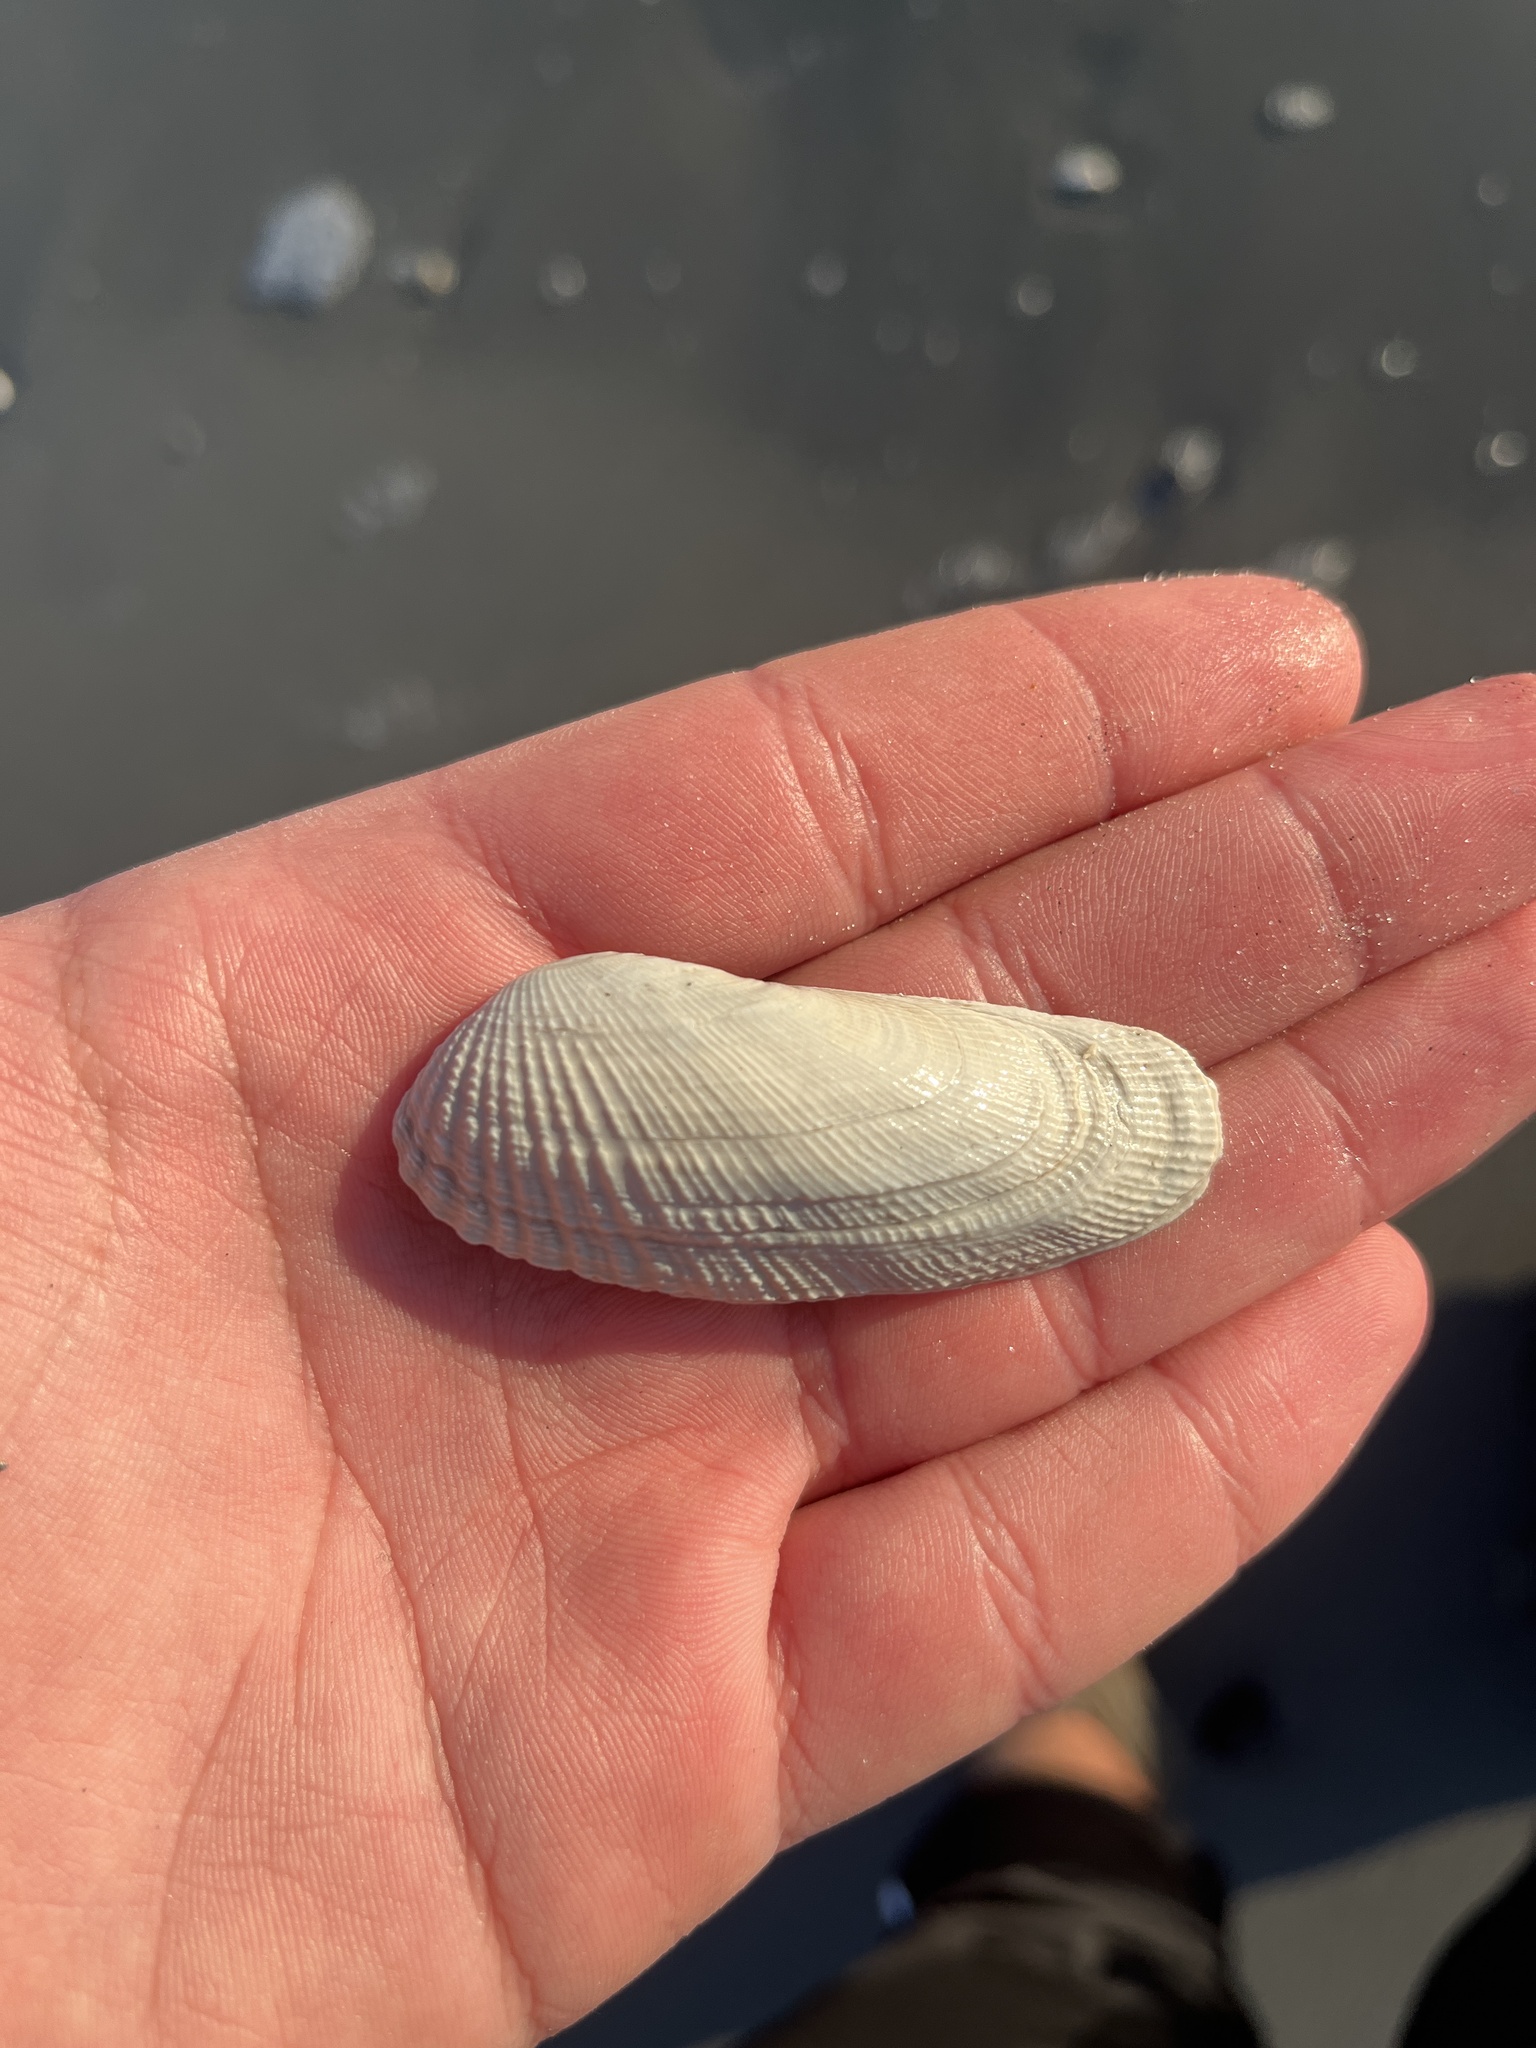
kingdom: Animalia
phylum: Mollusca
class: Bivalvia
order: Venerida
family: Veneridae
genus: Petricolaria
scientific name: Petricolaria pholadiformis
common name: American piddock
